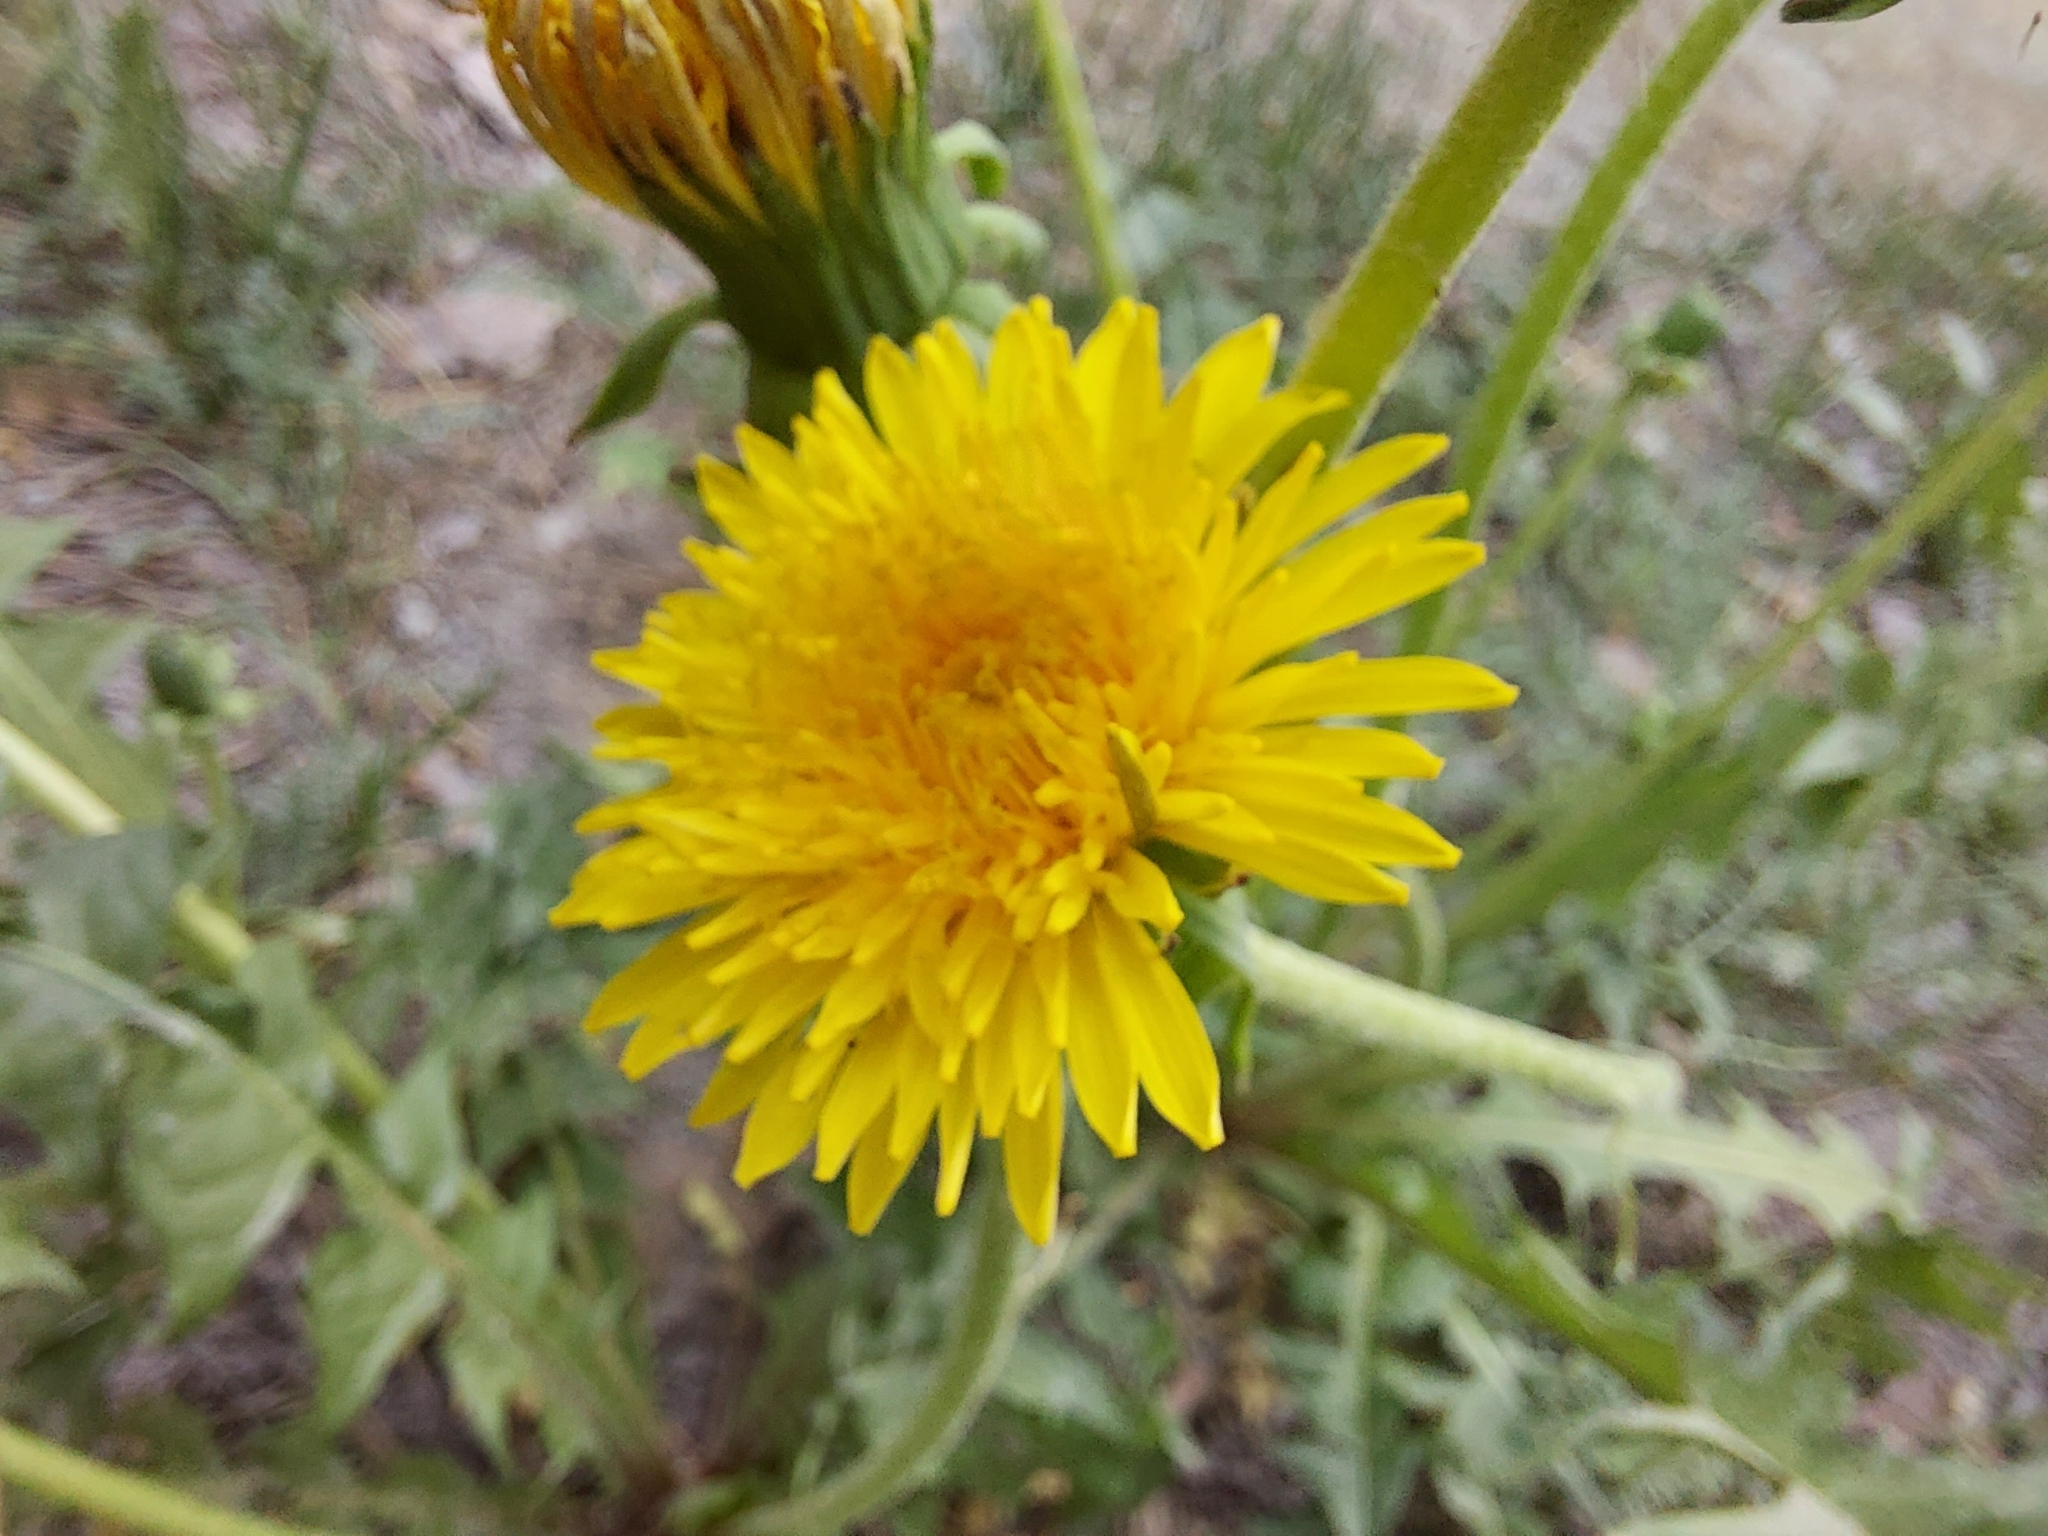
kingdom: Plantae
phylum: Tracheophyta
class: Magnoliopsida
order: Asterales
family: Asteraceae
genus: Taraxacum
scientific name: Taraxacum officinale
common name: Common dandelion
